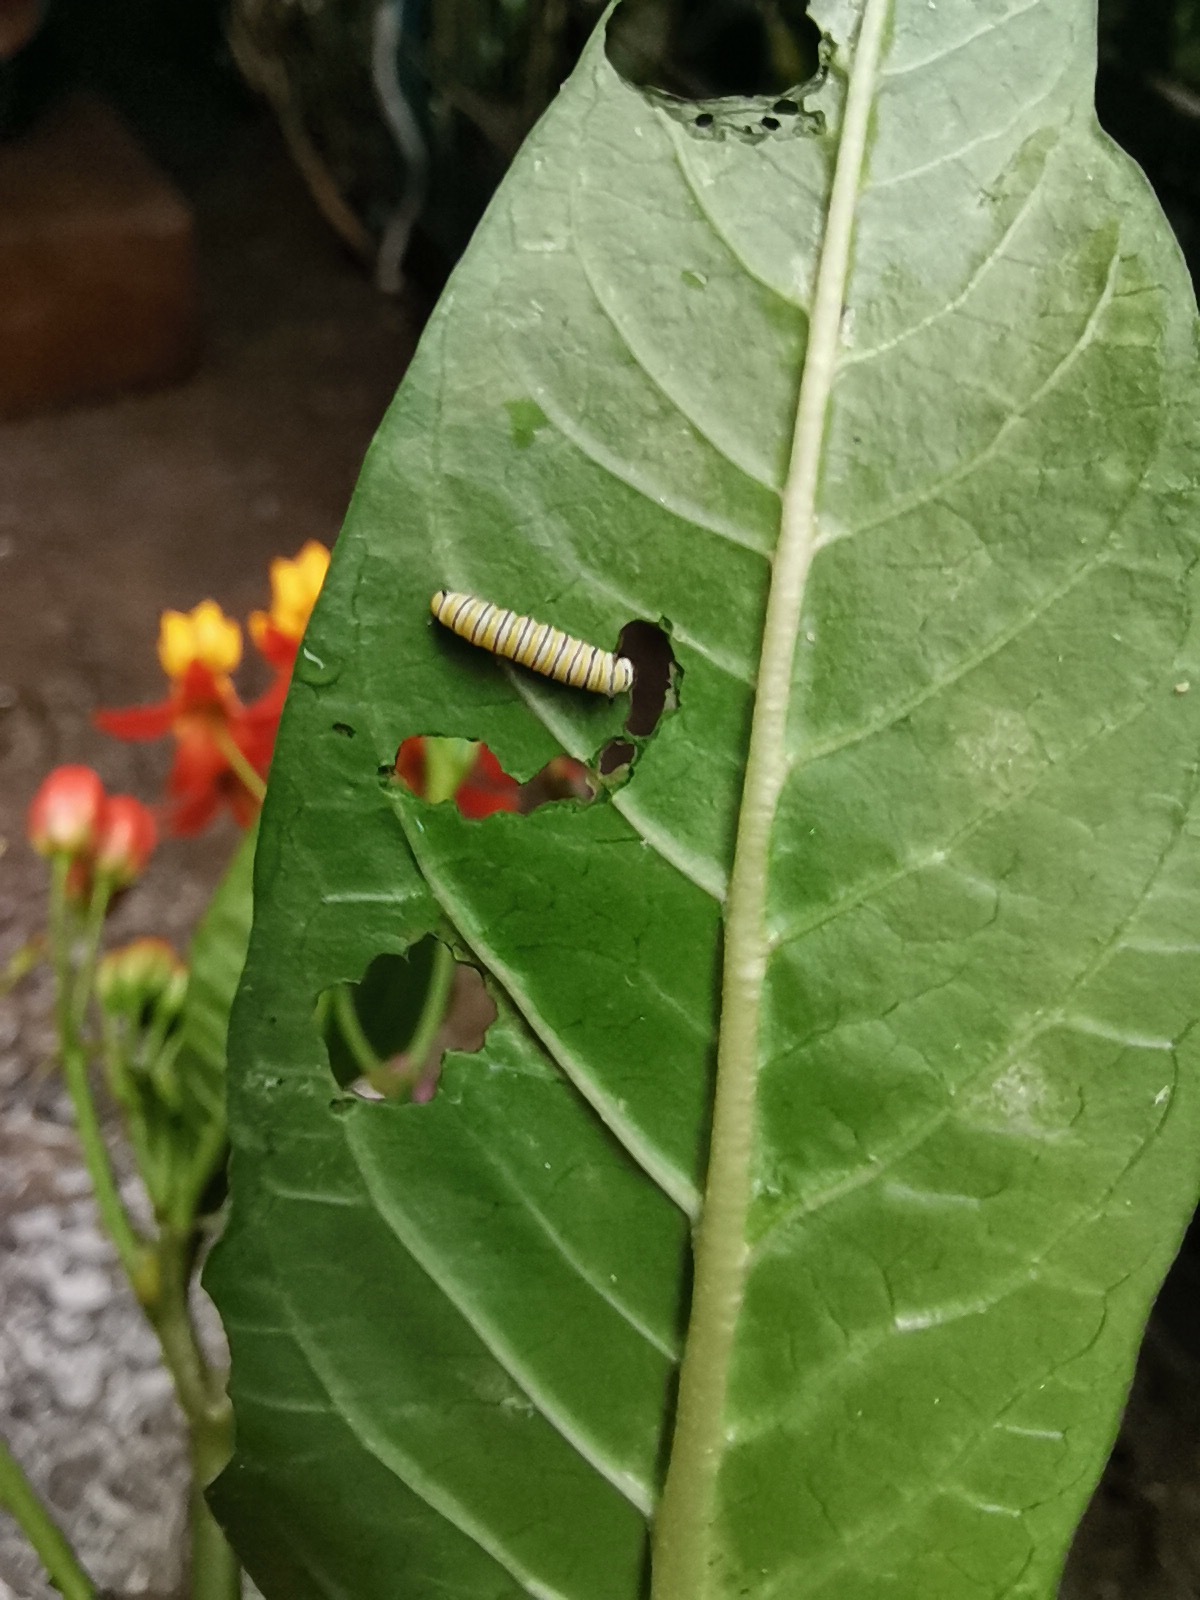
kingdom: Animalia
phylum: Arthropoda
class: Insecta
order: Lepidoptera
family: Nymphalidae
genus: Danaus
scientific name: Danaus plexippus
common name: Monarch
